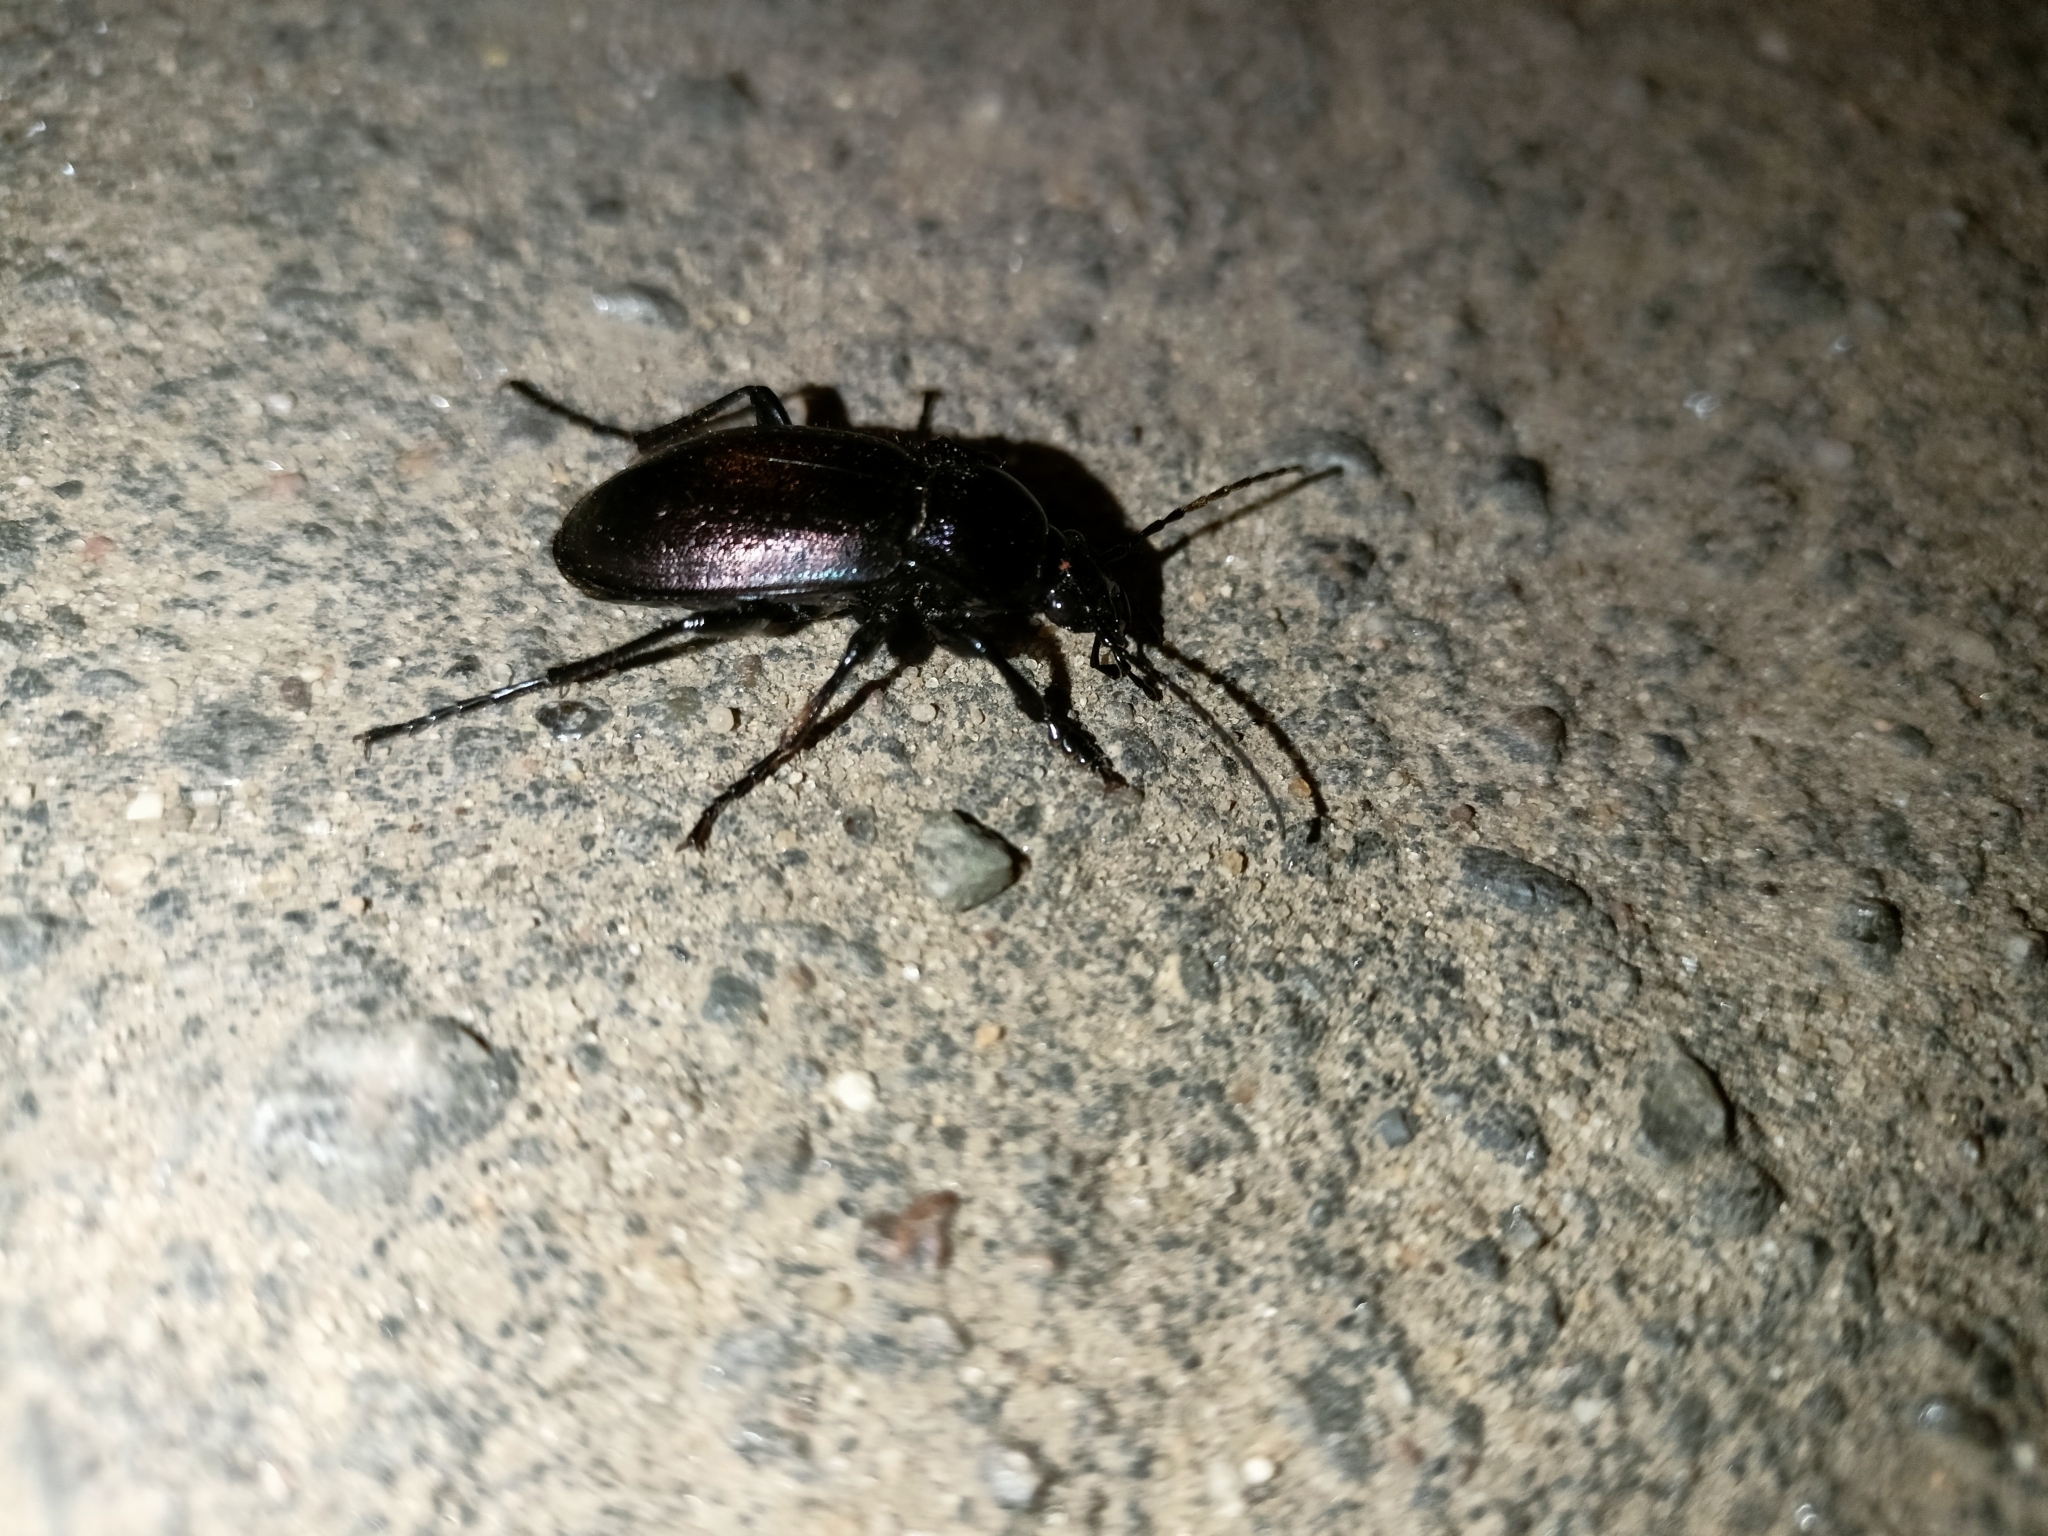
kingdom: Animalia
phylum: Arthropoda
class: Insecta
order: Coleoptera
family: Carabidae
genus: Carabus
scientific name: Carabus nemoralis
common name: European ground beetle
